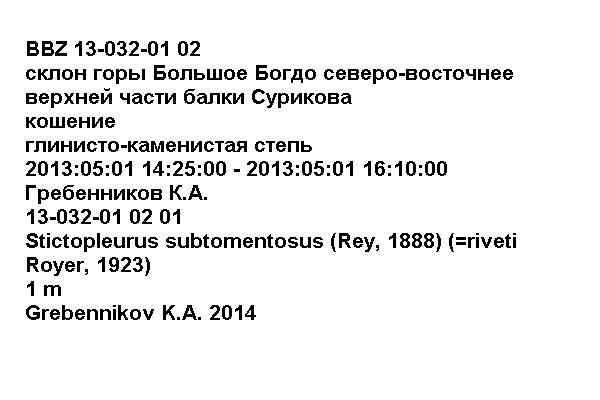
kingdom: Animalia
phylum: Arthropoda
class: Insecta
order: Hemiptera
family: Rhopalidae
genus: Stictopleurus
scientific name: Stictopleurus subtomentosus
